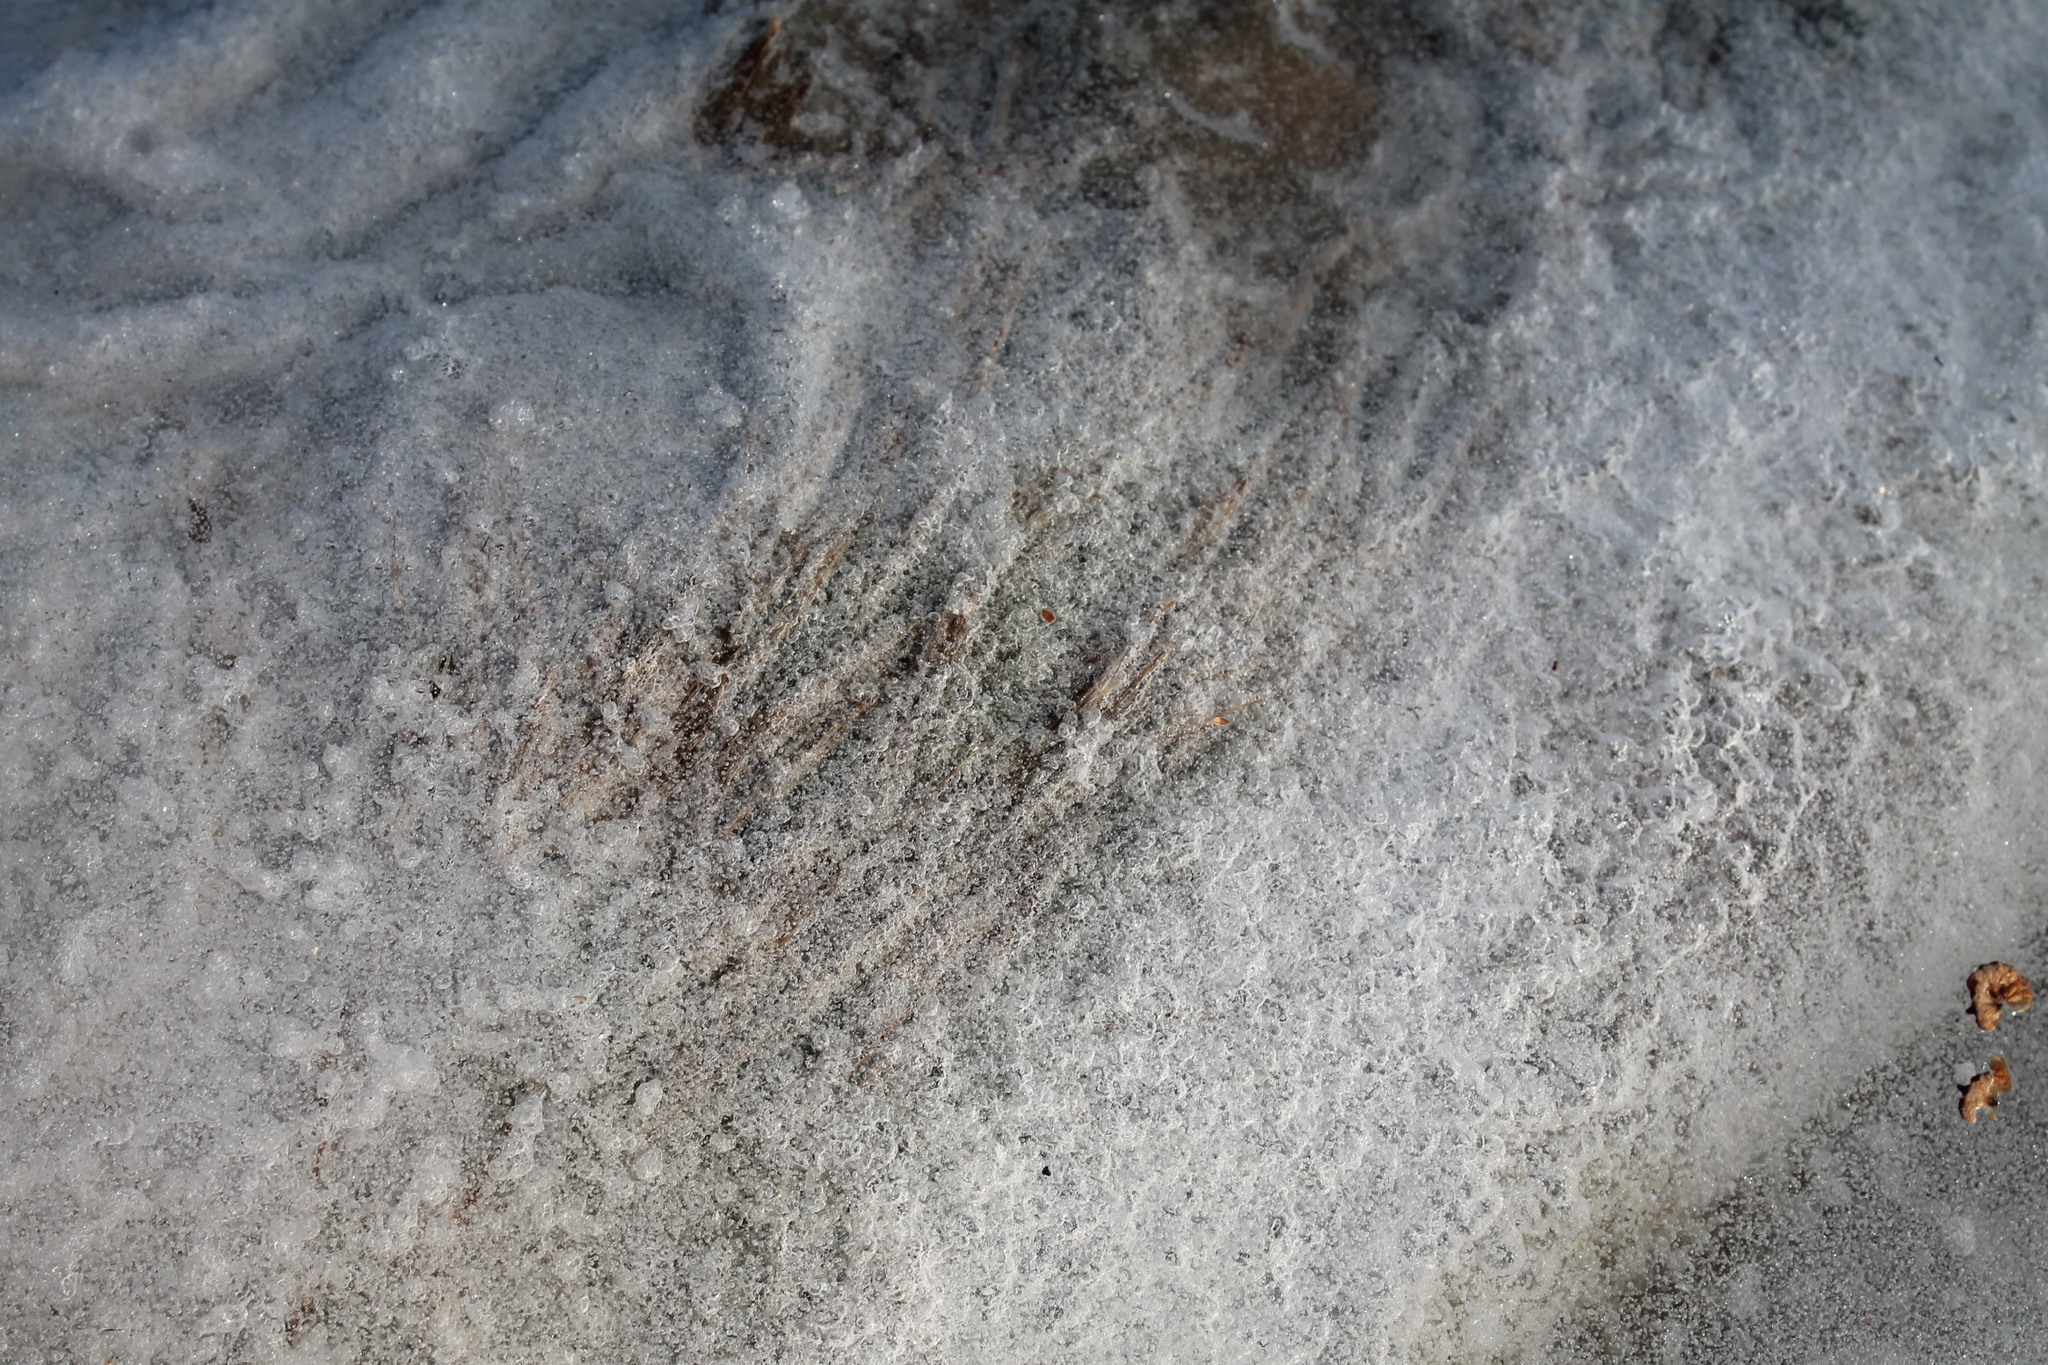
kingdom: Animalia
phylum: Chordata
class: Mammalia
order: Artiodactyla
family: Cervidae
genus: Odocoileus
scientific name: Odocoileus virginianus
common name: White-tailed deer
